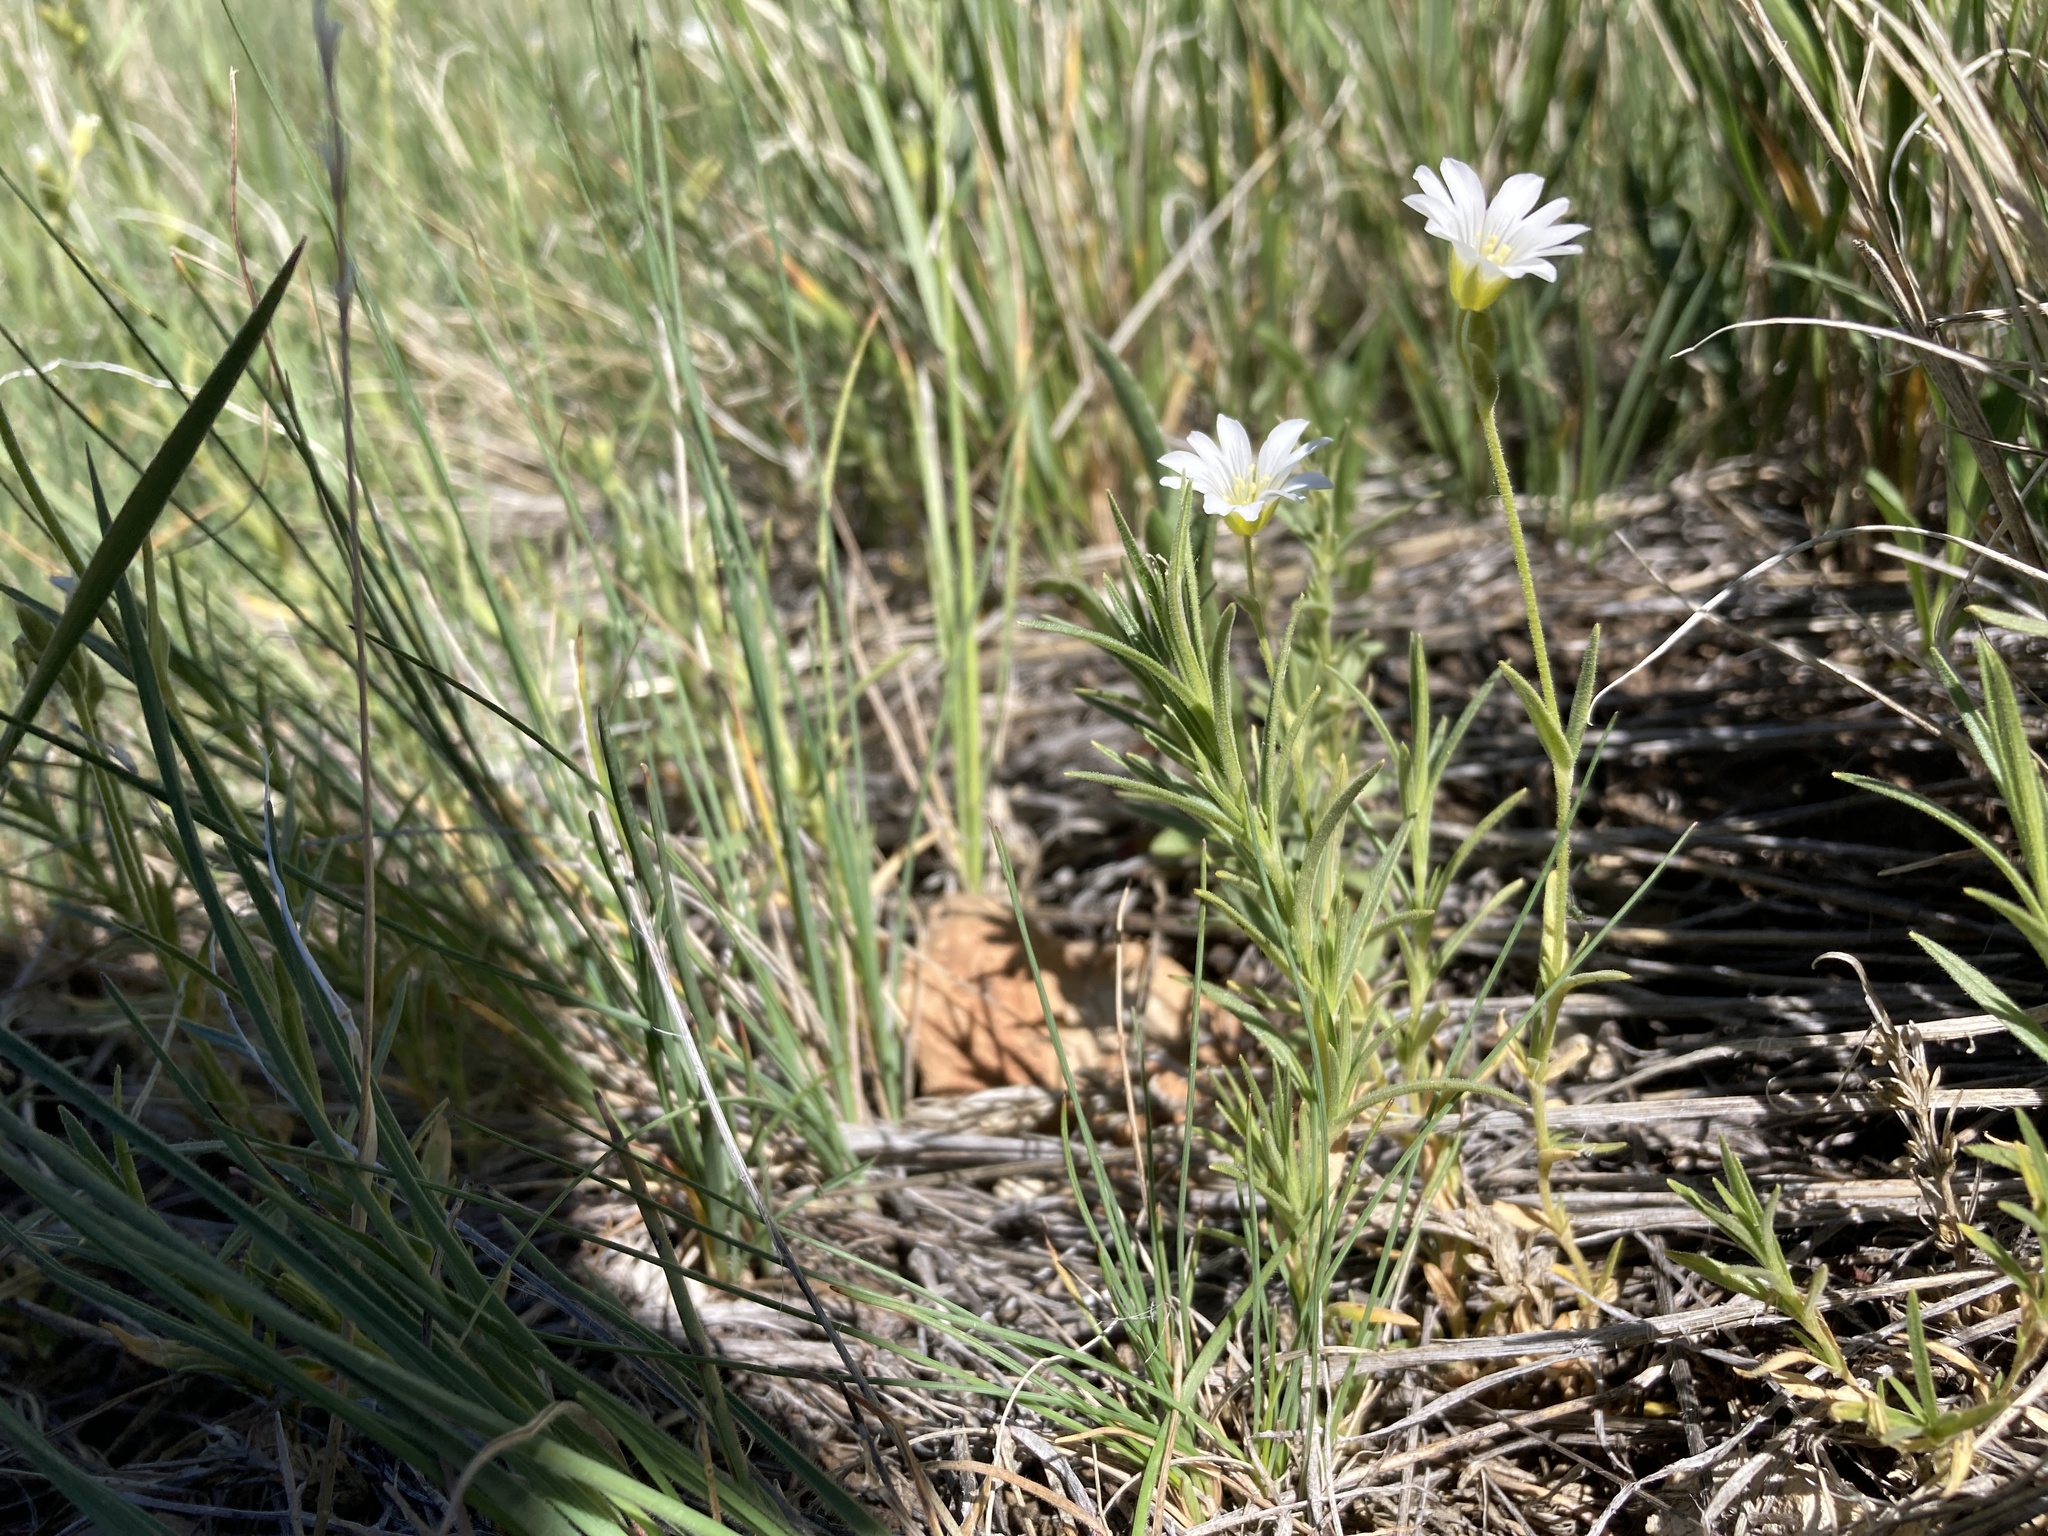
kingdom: Plantae
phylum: Tracheophyta
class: Magnoliopsida
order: Caryophyllales
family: Caryophyllaceae
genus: Cerastium
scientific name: Cerastium arvense
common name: Field mouse-ear
